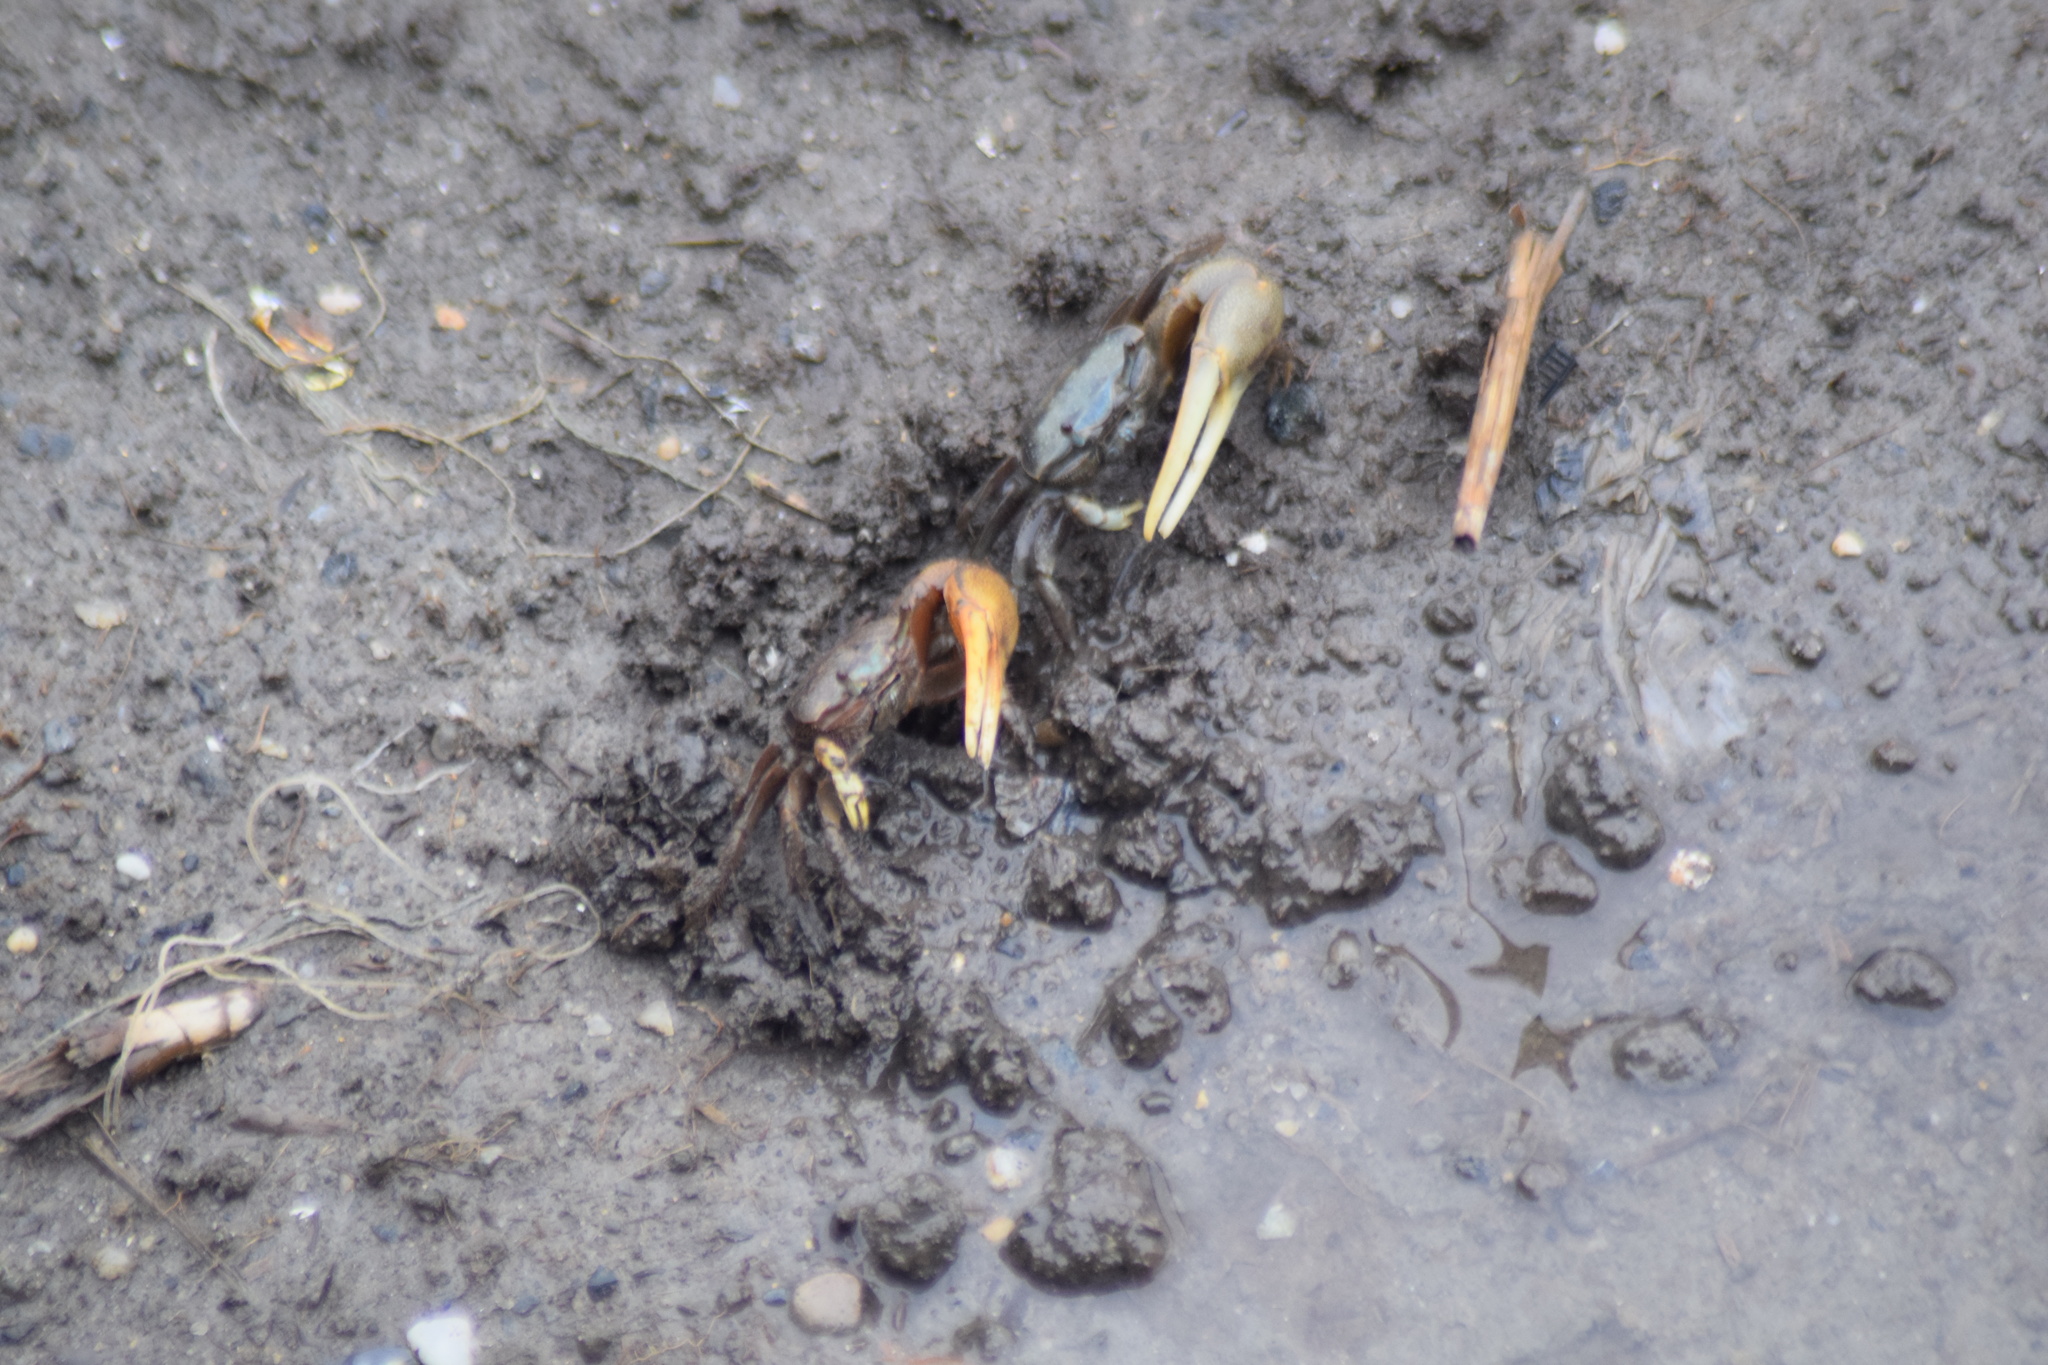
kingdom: Animalia
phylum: Arthropoda
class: Malacostraca
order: Decapoda
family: Ocypodidae
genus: Minuca
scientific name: Minuca pugnax
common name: Mud fiddler crab
